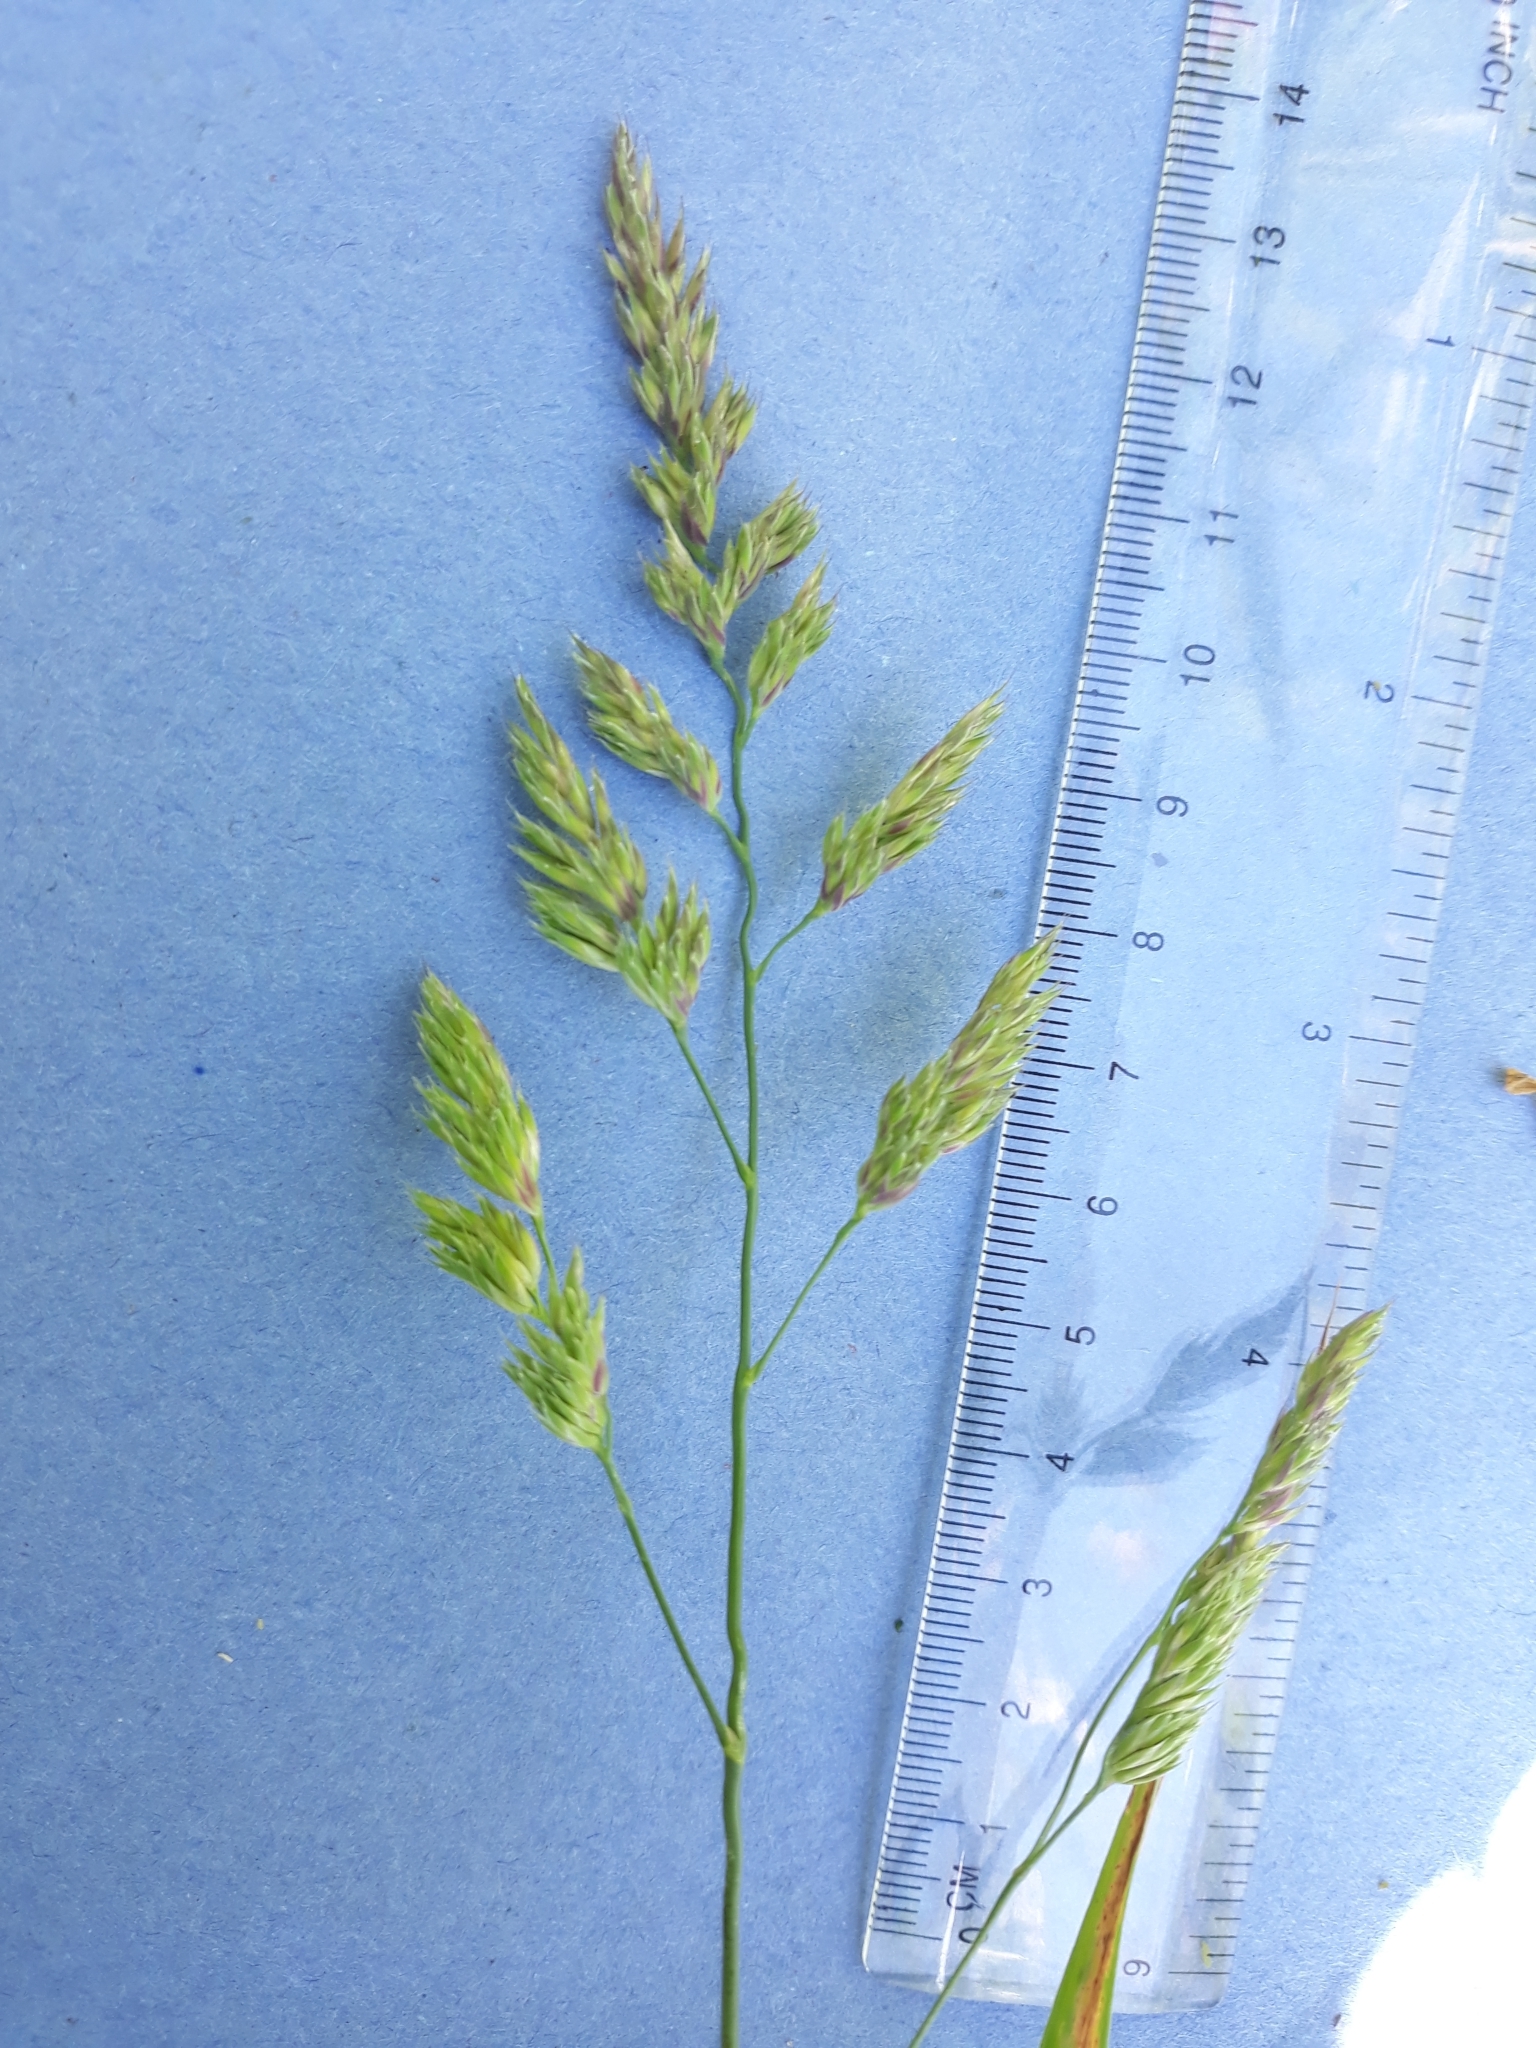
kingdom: Plantae
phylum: Tracheophyta
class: Liliopsida
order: Poales
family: Poaceae
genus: Dactylis
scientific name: Dactylis glomerata
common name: Orchardgrass
